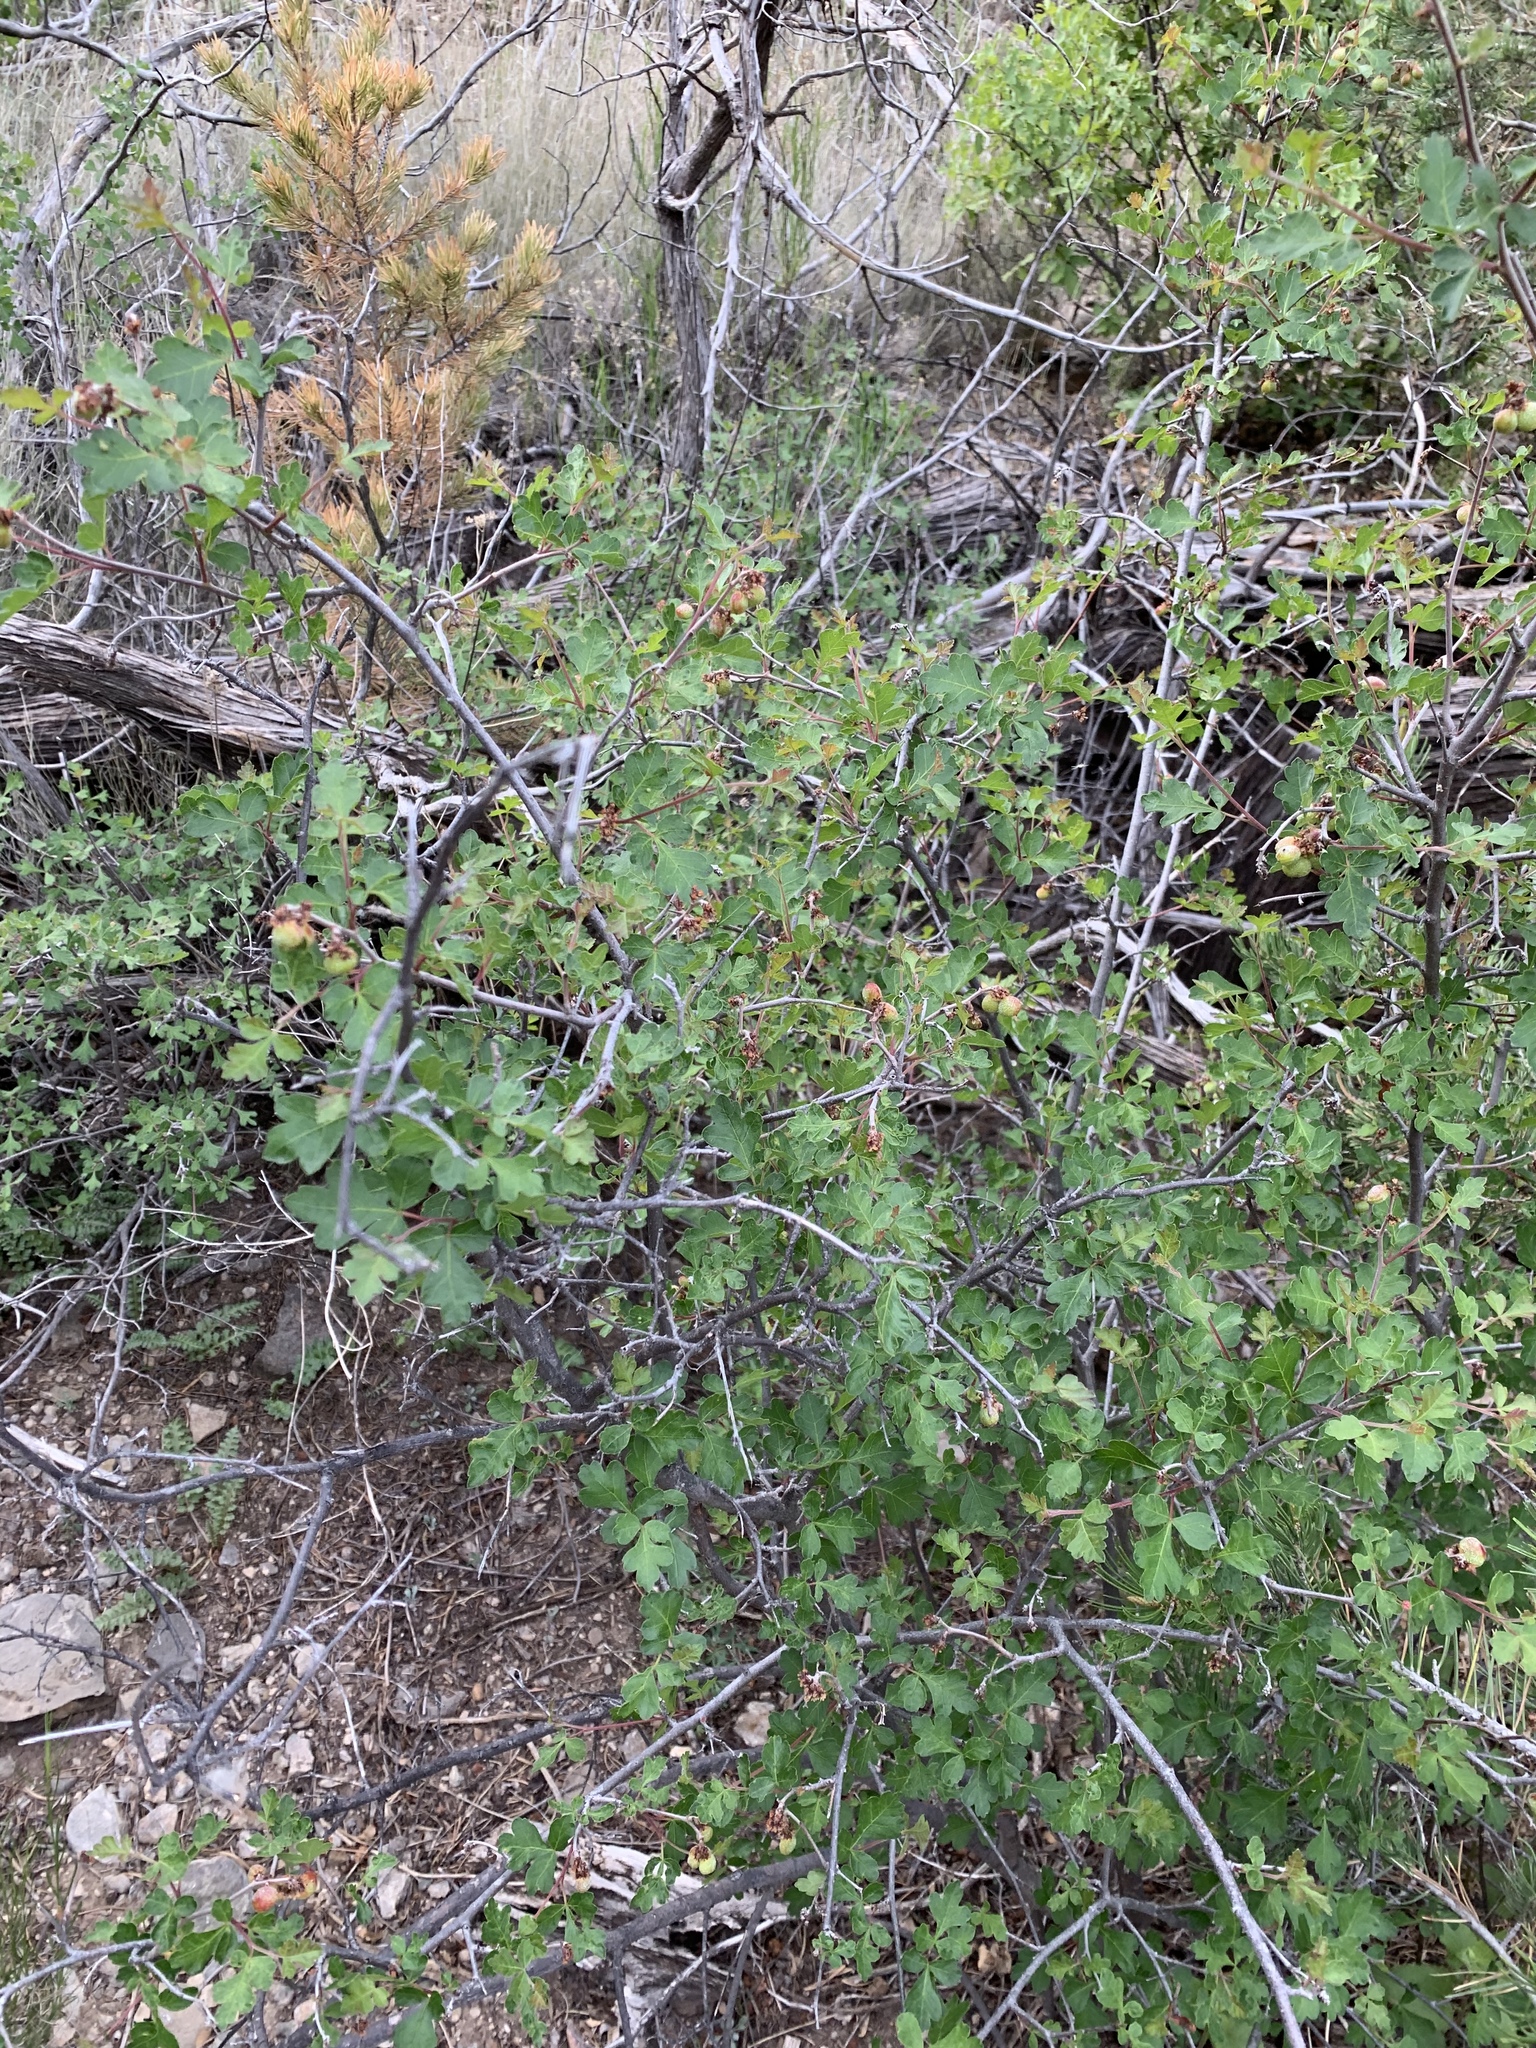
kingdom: Plantae
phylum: Tracheophyta
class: Magnoliopsida
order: Sapindales
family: Anacardiaceae
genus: Rhus
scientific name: Rhus aromatica
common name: Aromatic sumac
